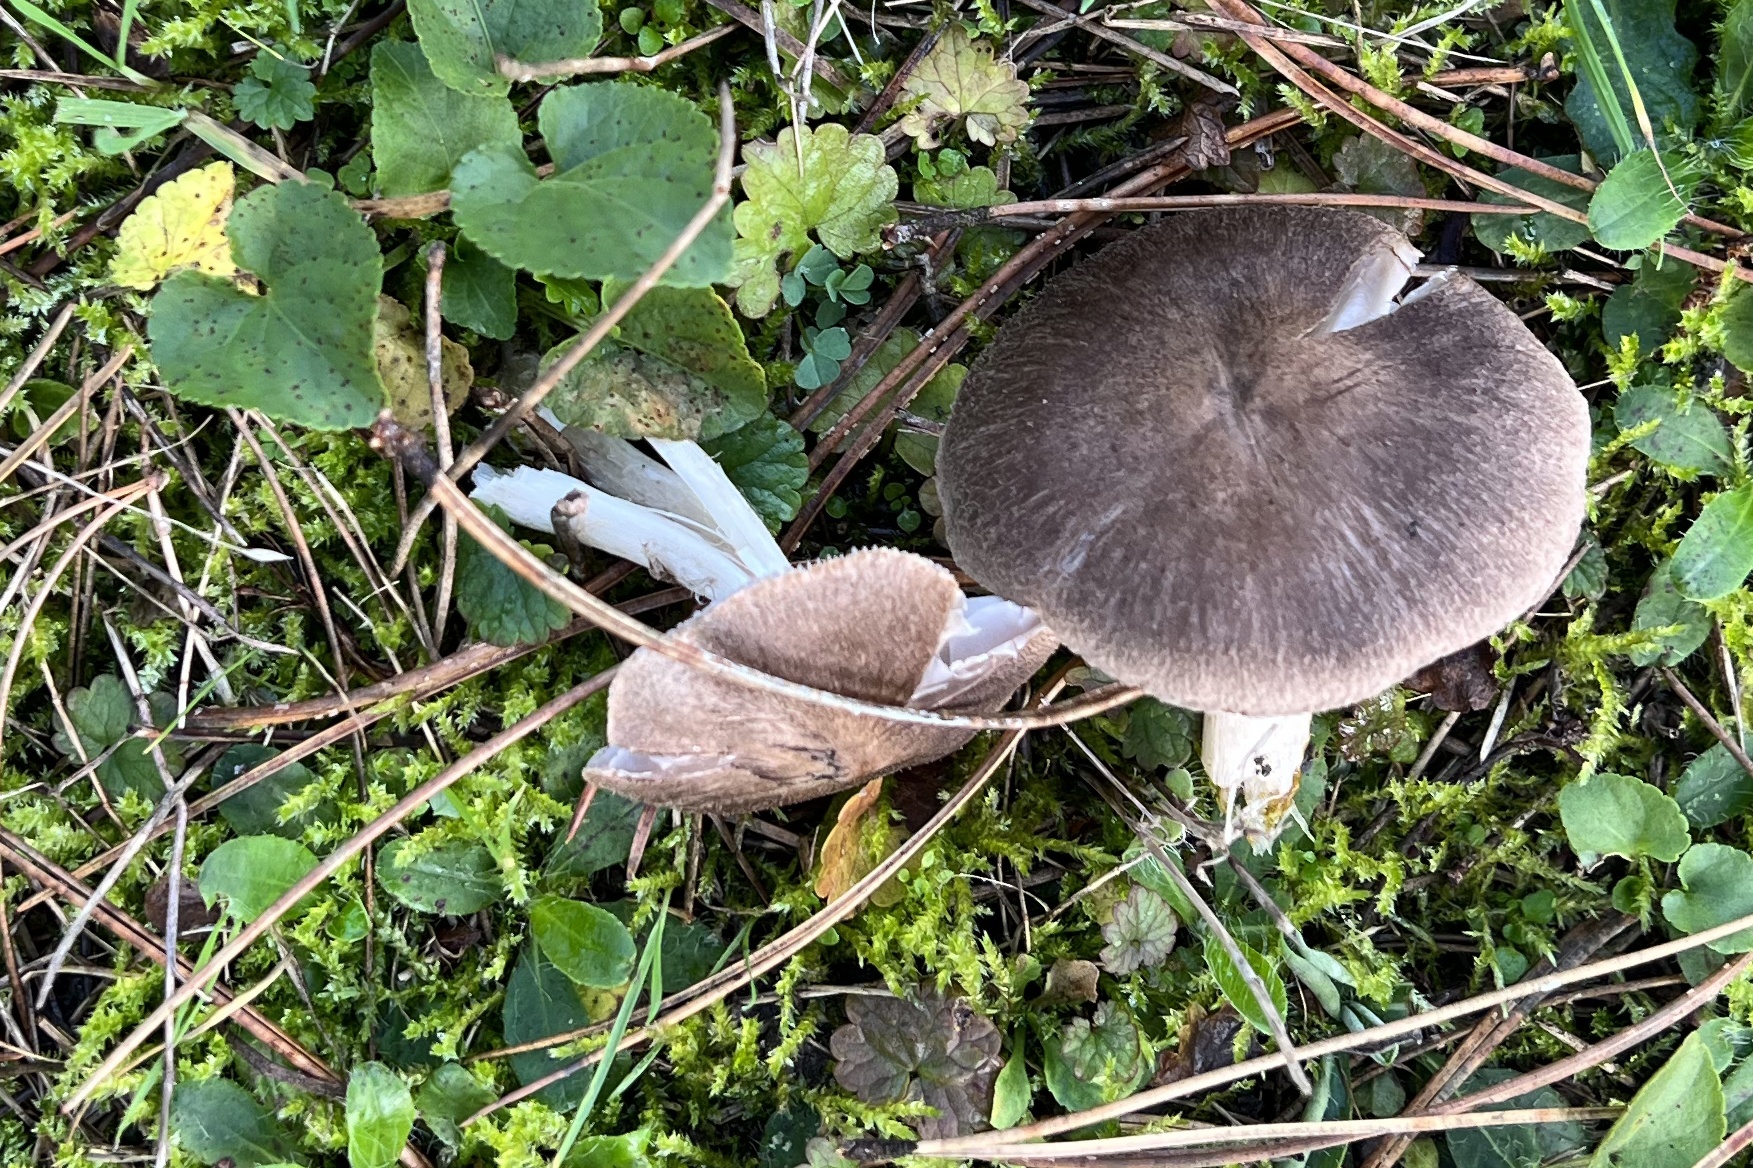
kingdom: Fungi
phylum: Basidiomycota
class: Agaricomycetes
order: Agaricales
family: Tricholomataceae
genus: Tricholoma
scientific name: Tricholoma terreum
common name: Grey knight
